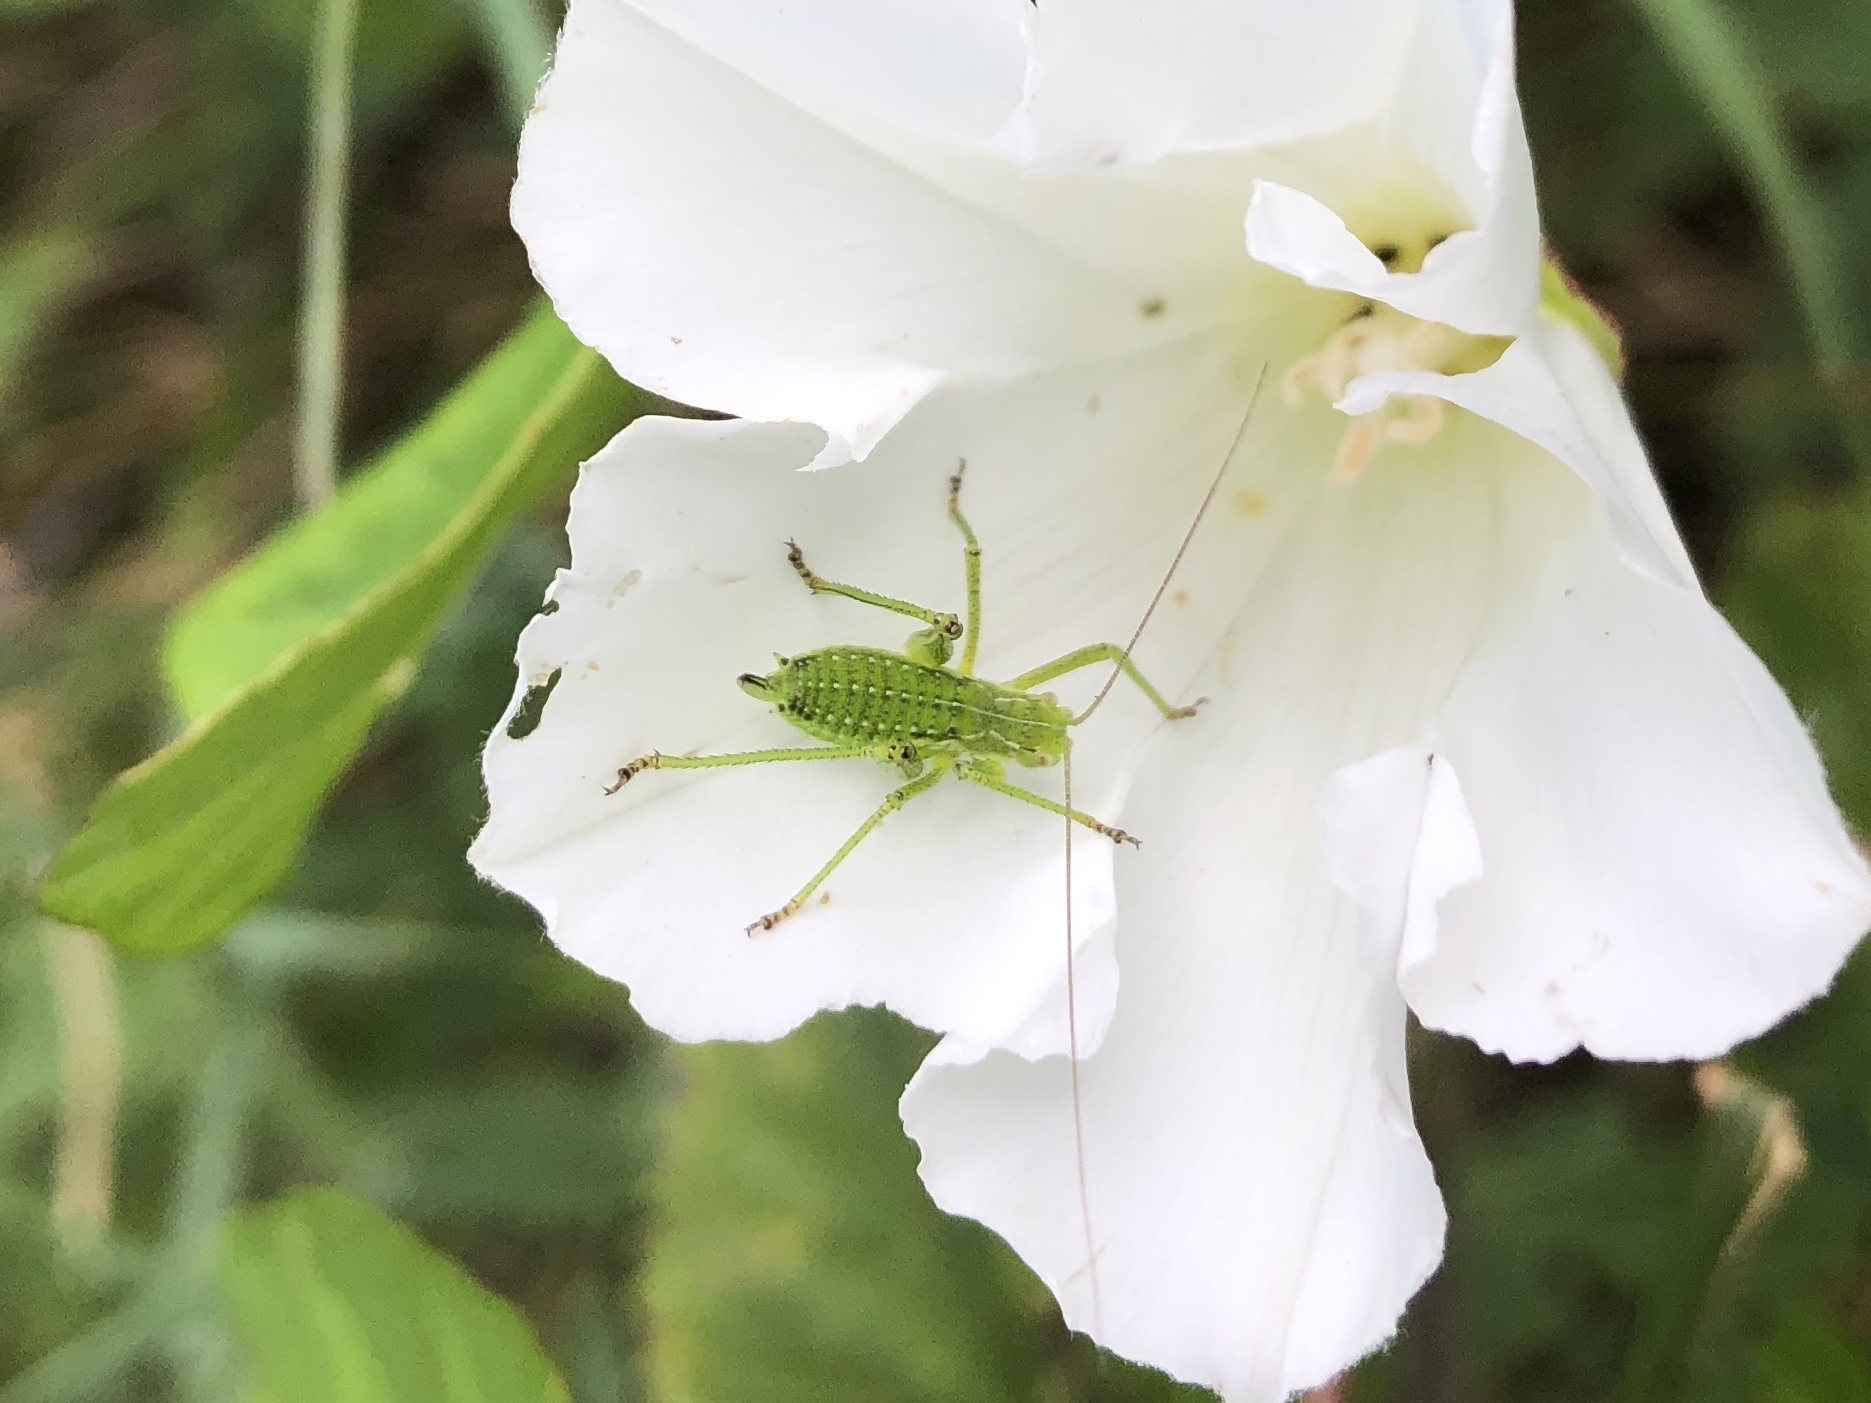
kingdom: Animalia
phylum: Arthropoda
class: Insecta
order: Orthoptera
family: Tettigoniidae
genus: Leptophyes
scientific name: Leptophyes albovittata
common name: Striped bush-cricket
